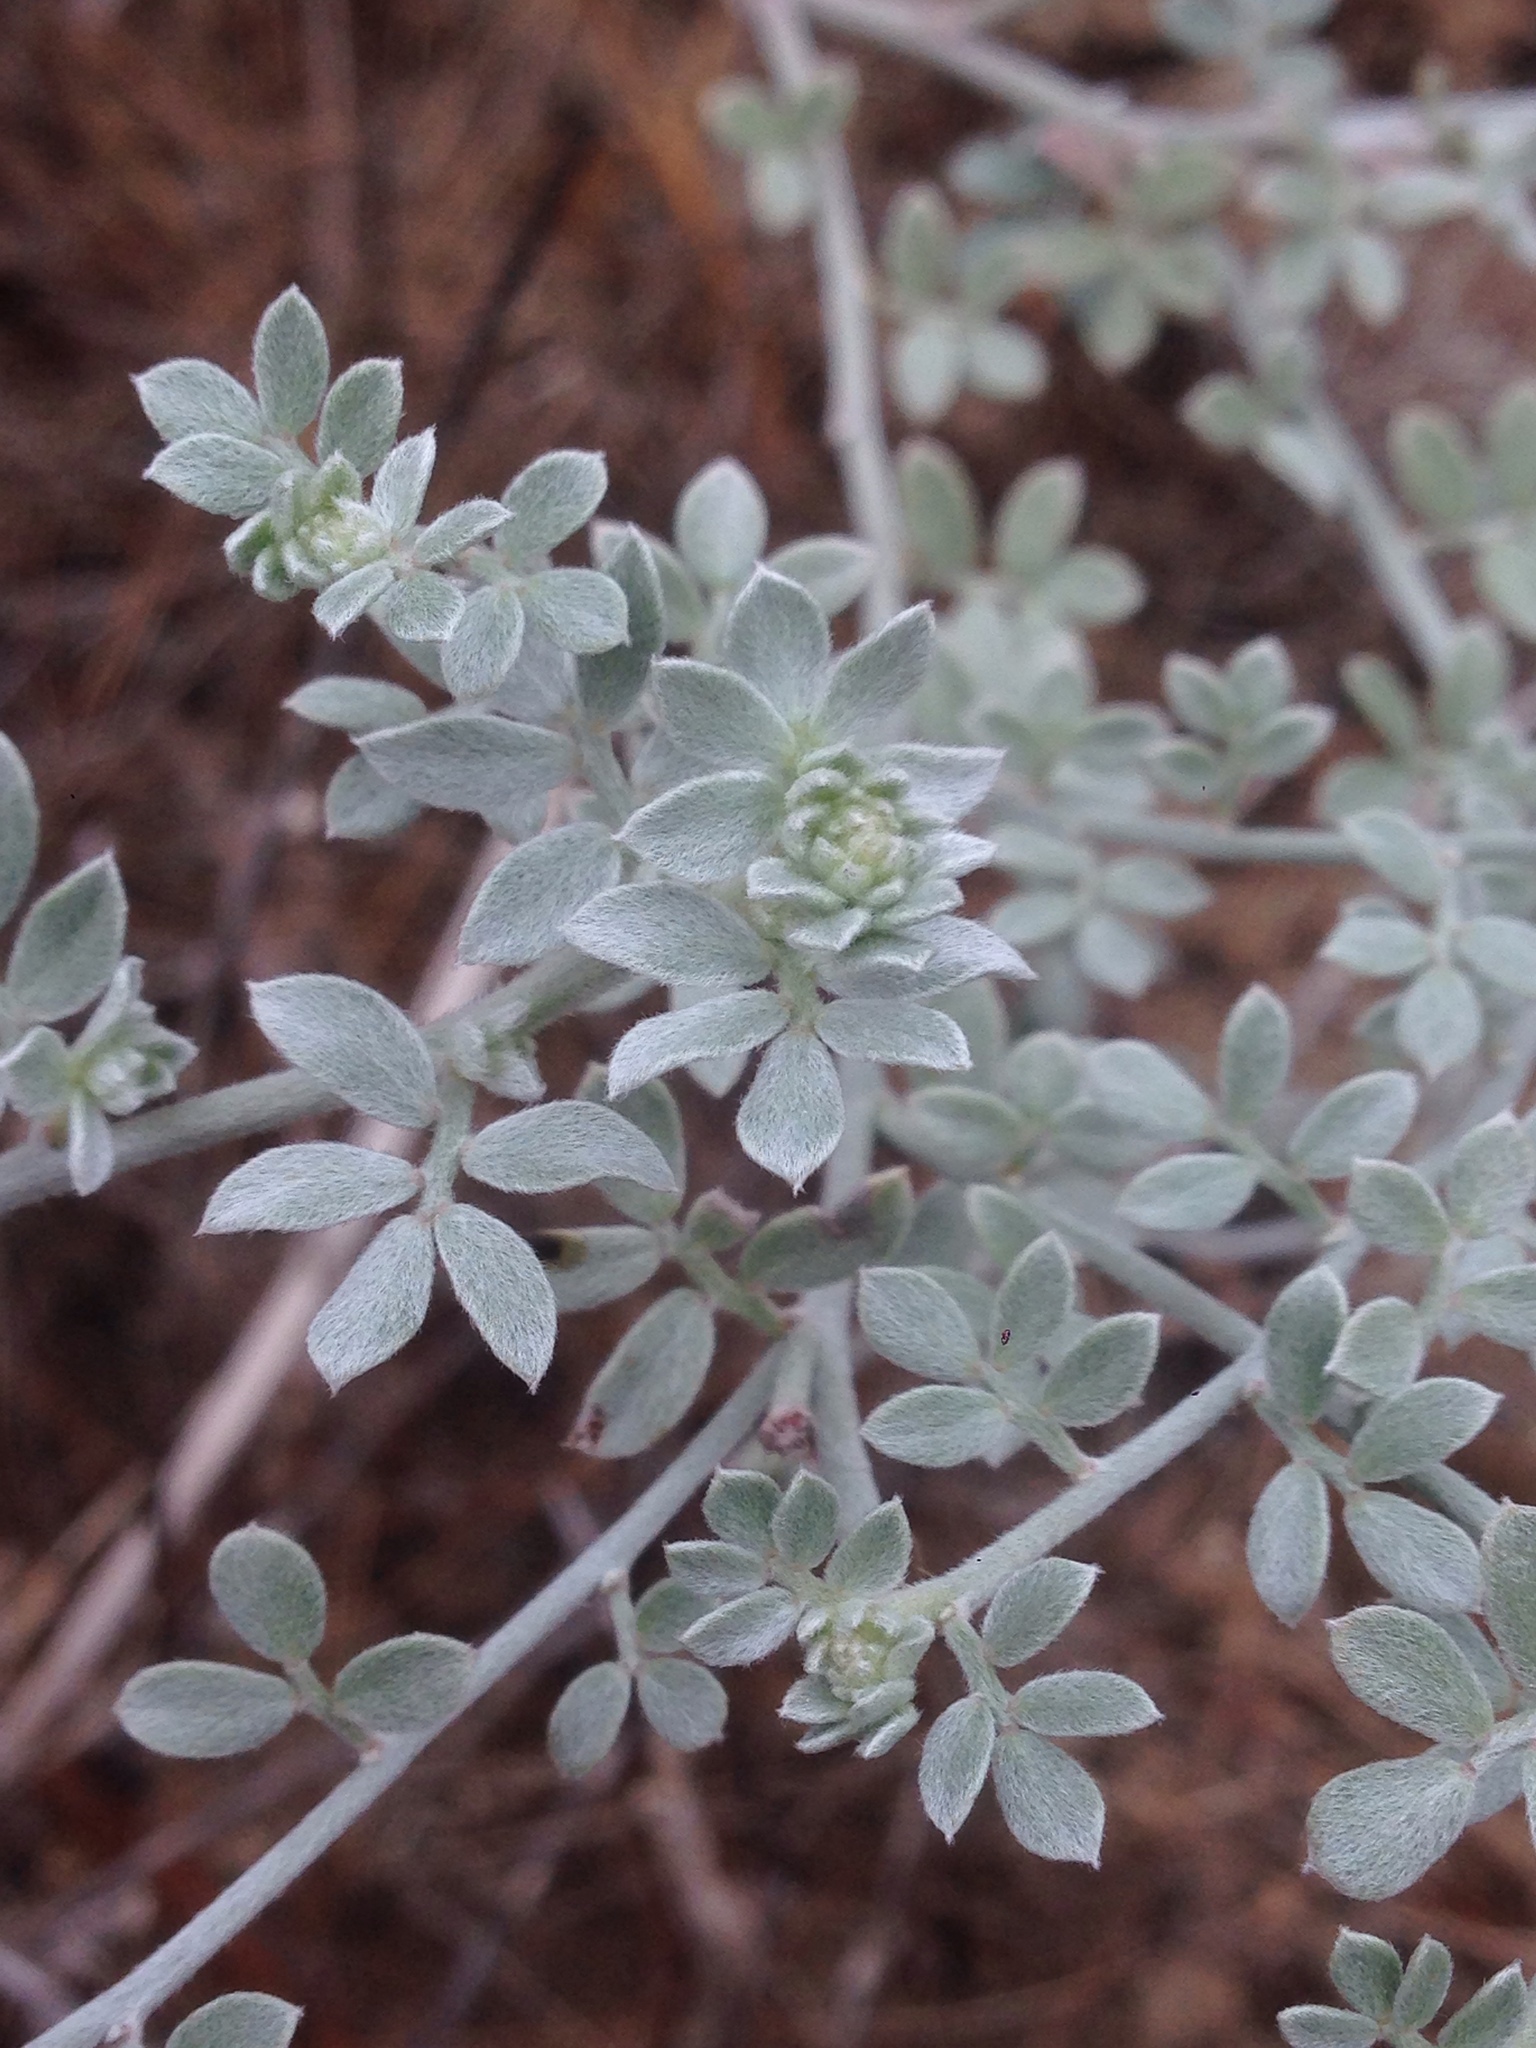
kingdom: Plantae
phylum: Tracheophyta
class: Magnoliopsida
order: Fabales
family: Fabaceae
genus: Acmispon
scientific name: Acmispon argophyllus
